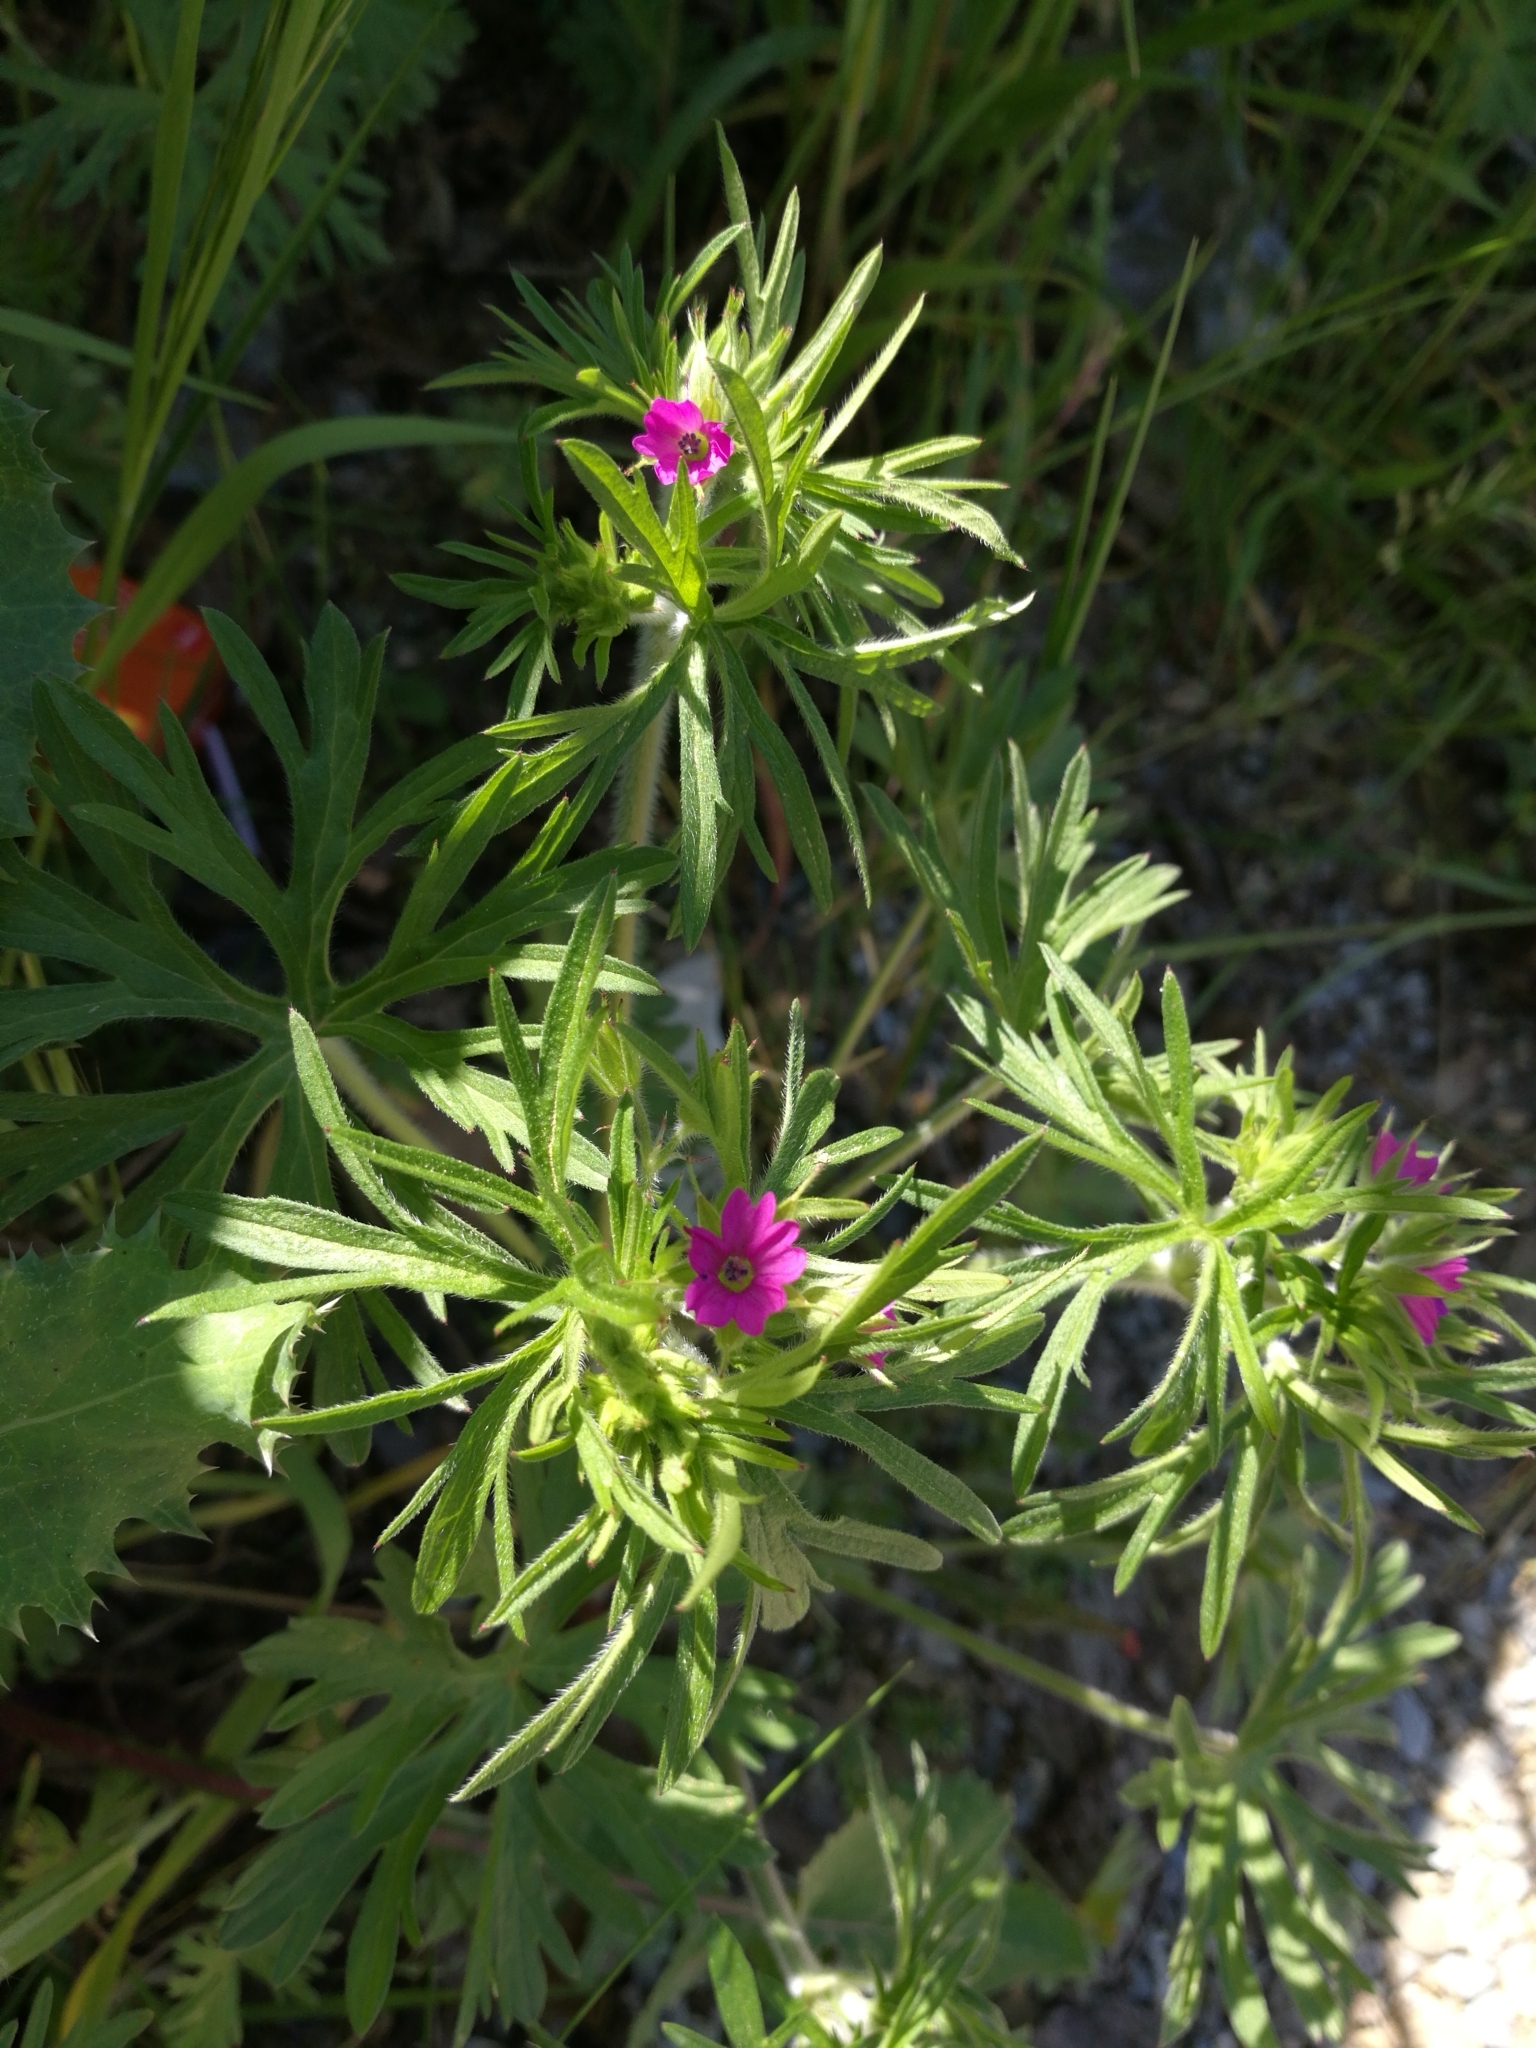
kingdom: Plantae
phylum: Tracheophyta
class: Magnoliopsida
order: Geraniales
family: Geraniaceae
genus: Geranium
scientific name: Geranium dissectum
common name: Cut-leaved crane's-bill
